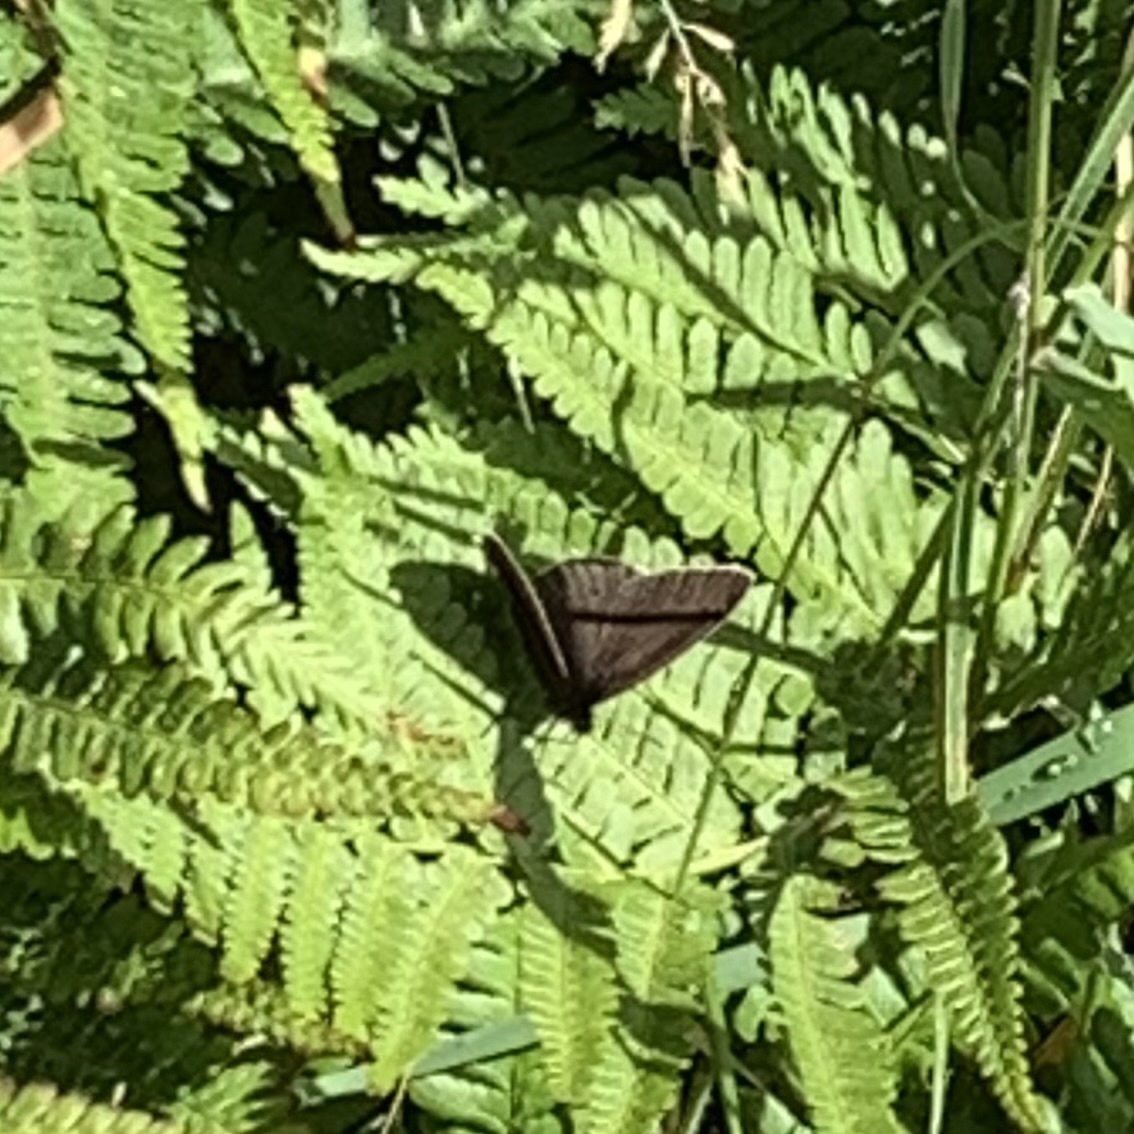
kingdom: Animalia
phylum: Arthropoda
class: Insecta
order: Lepidoptera
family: Nymphalidae
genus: Aphantopus
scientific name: Aphantopus hyperantus
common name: Ringlet
